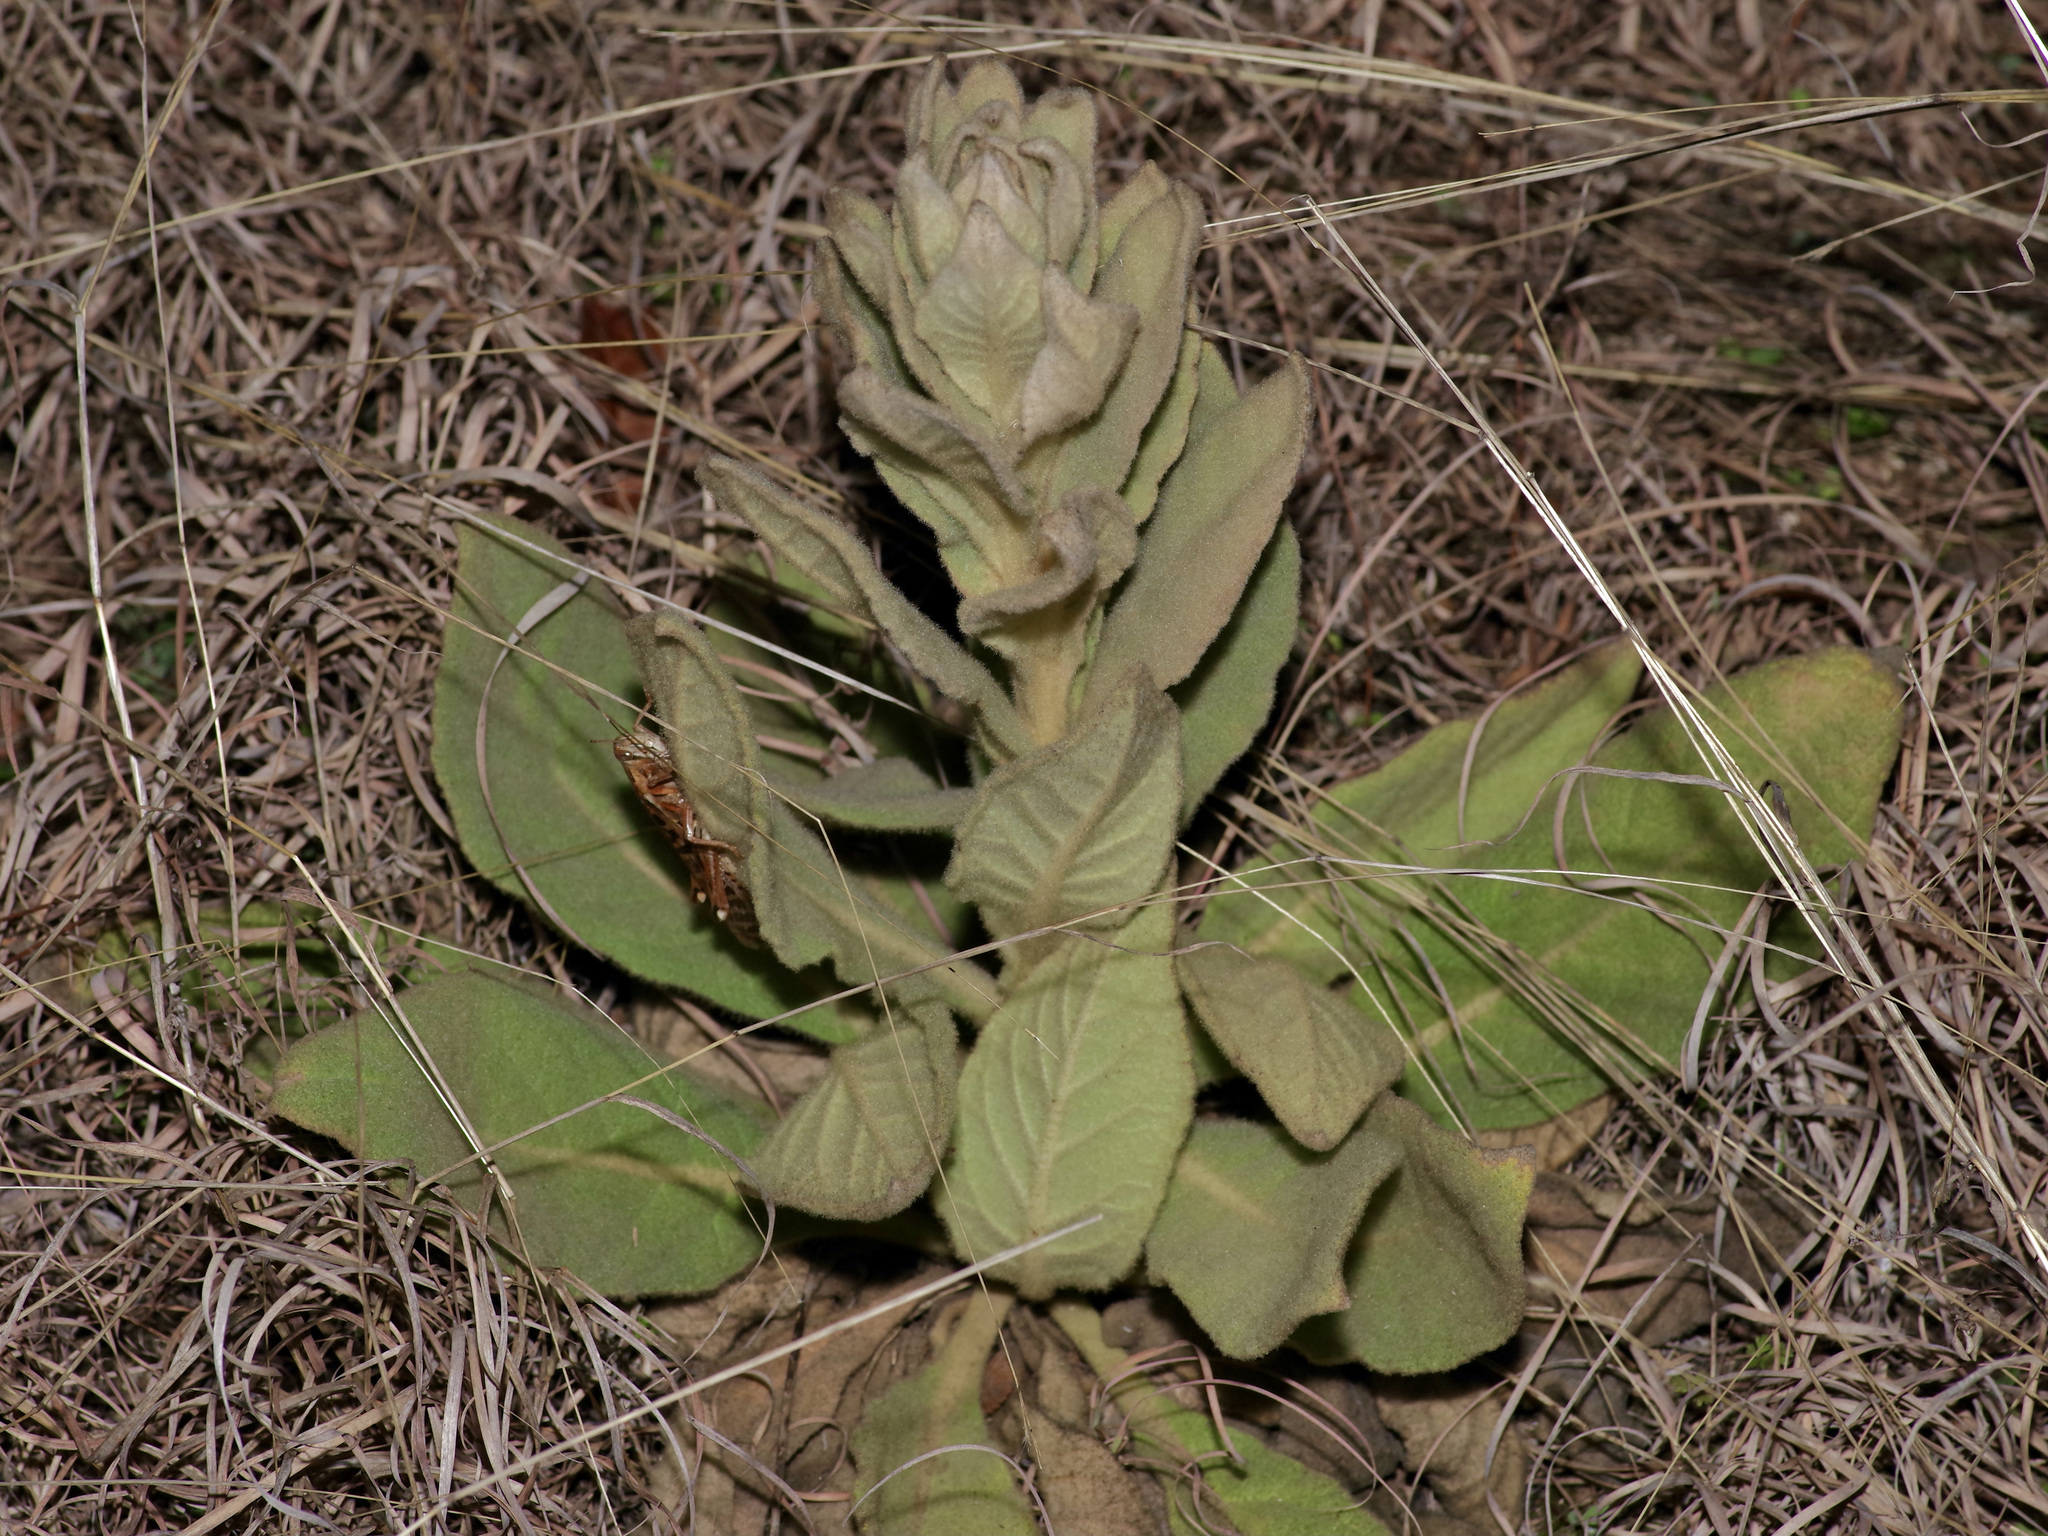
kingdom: Plantae
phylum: Tracheophyta
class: Magnoliopsida
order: Lamiales
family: Scrophulariaceae
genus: Verbascum
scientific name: Verbascum thapsus
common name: Common mullein
